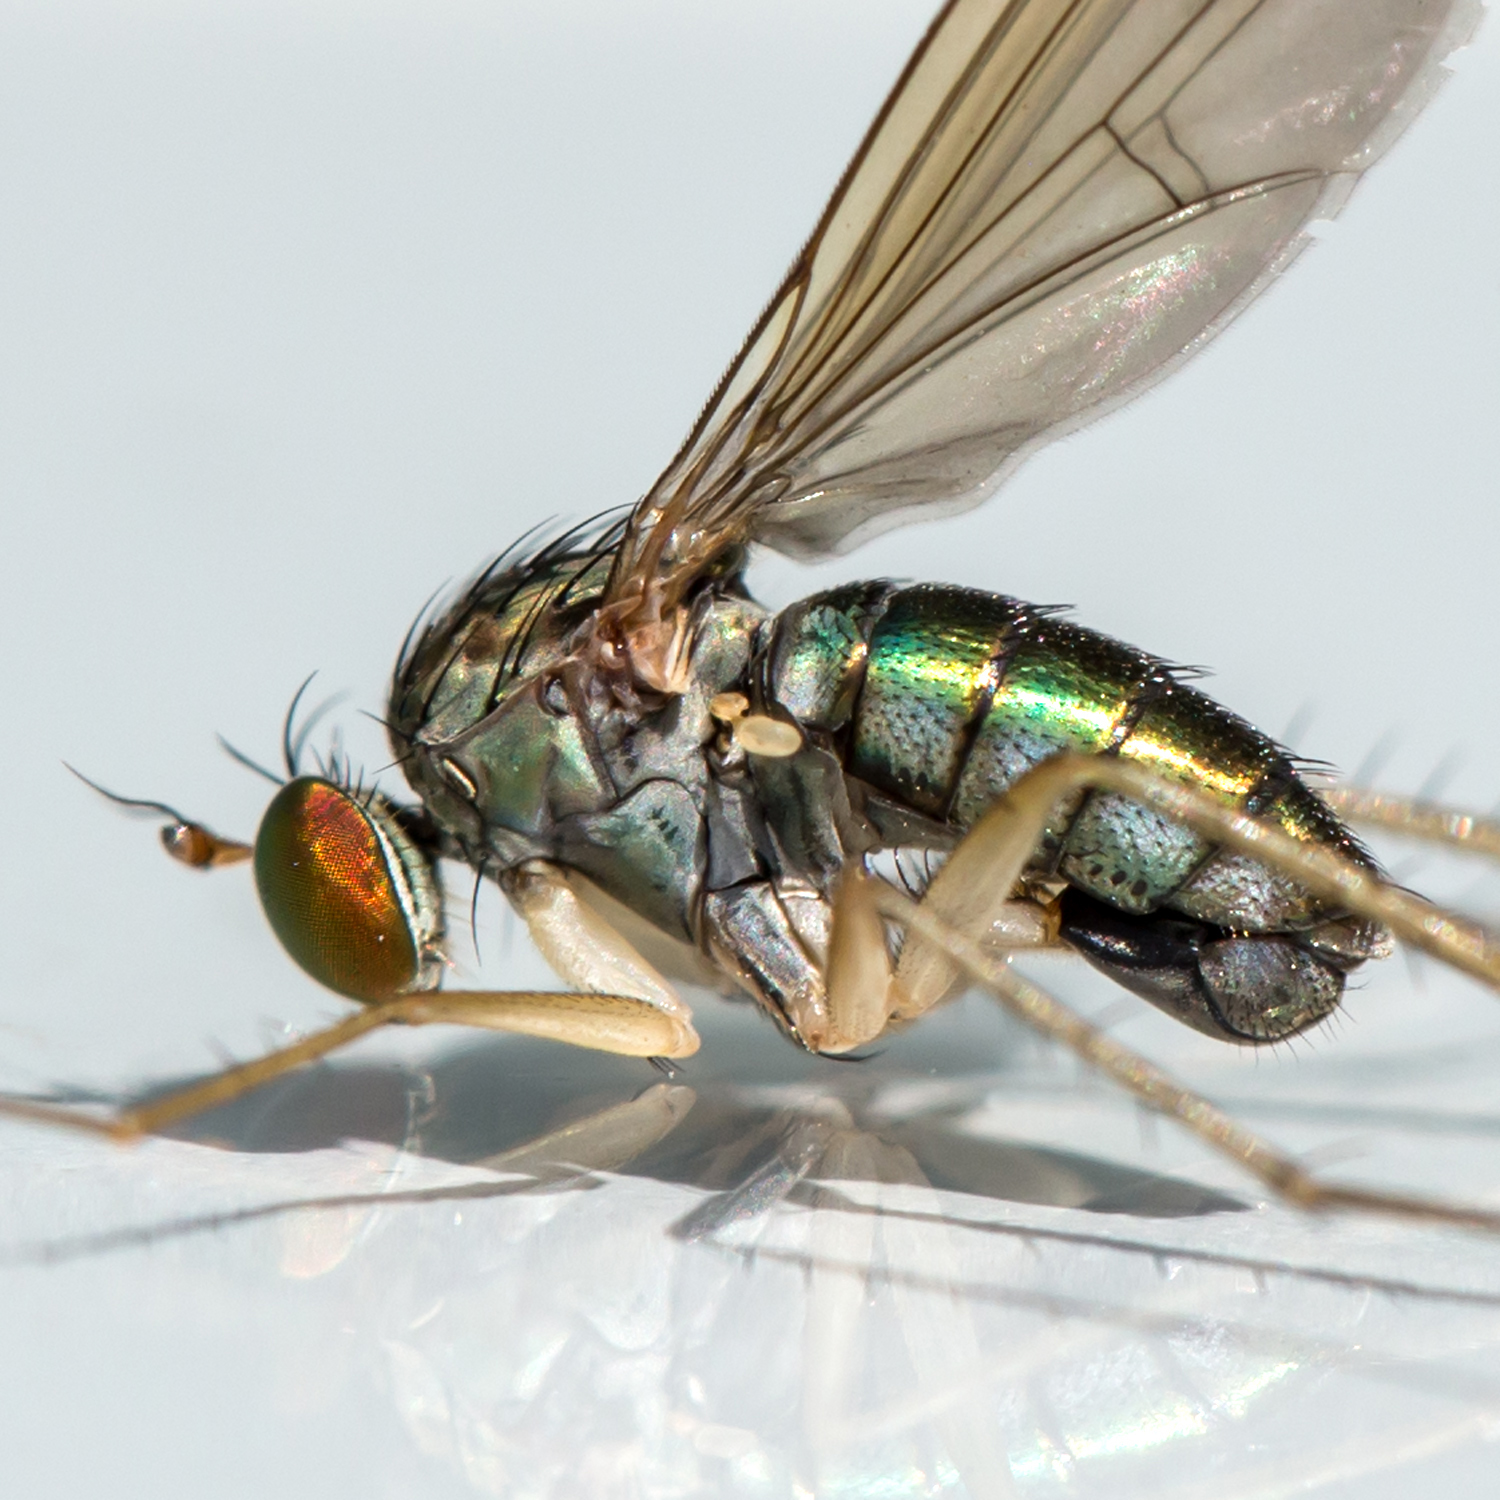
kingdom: Animalia
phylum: Arthropoda
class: Insecta
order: Diptera
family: Dolichopodidae
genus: Dolichopus
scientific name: Dolichopus longipennis
